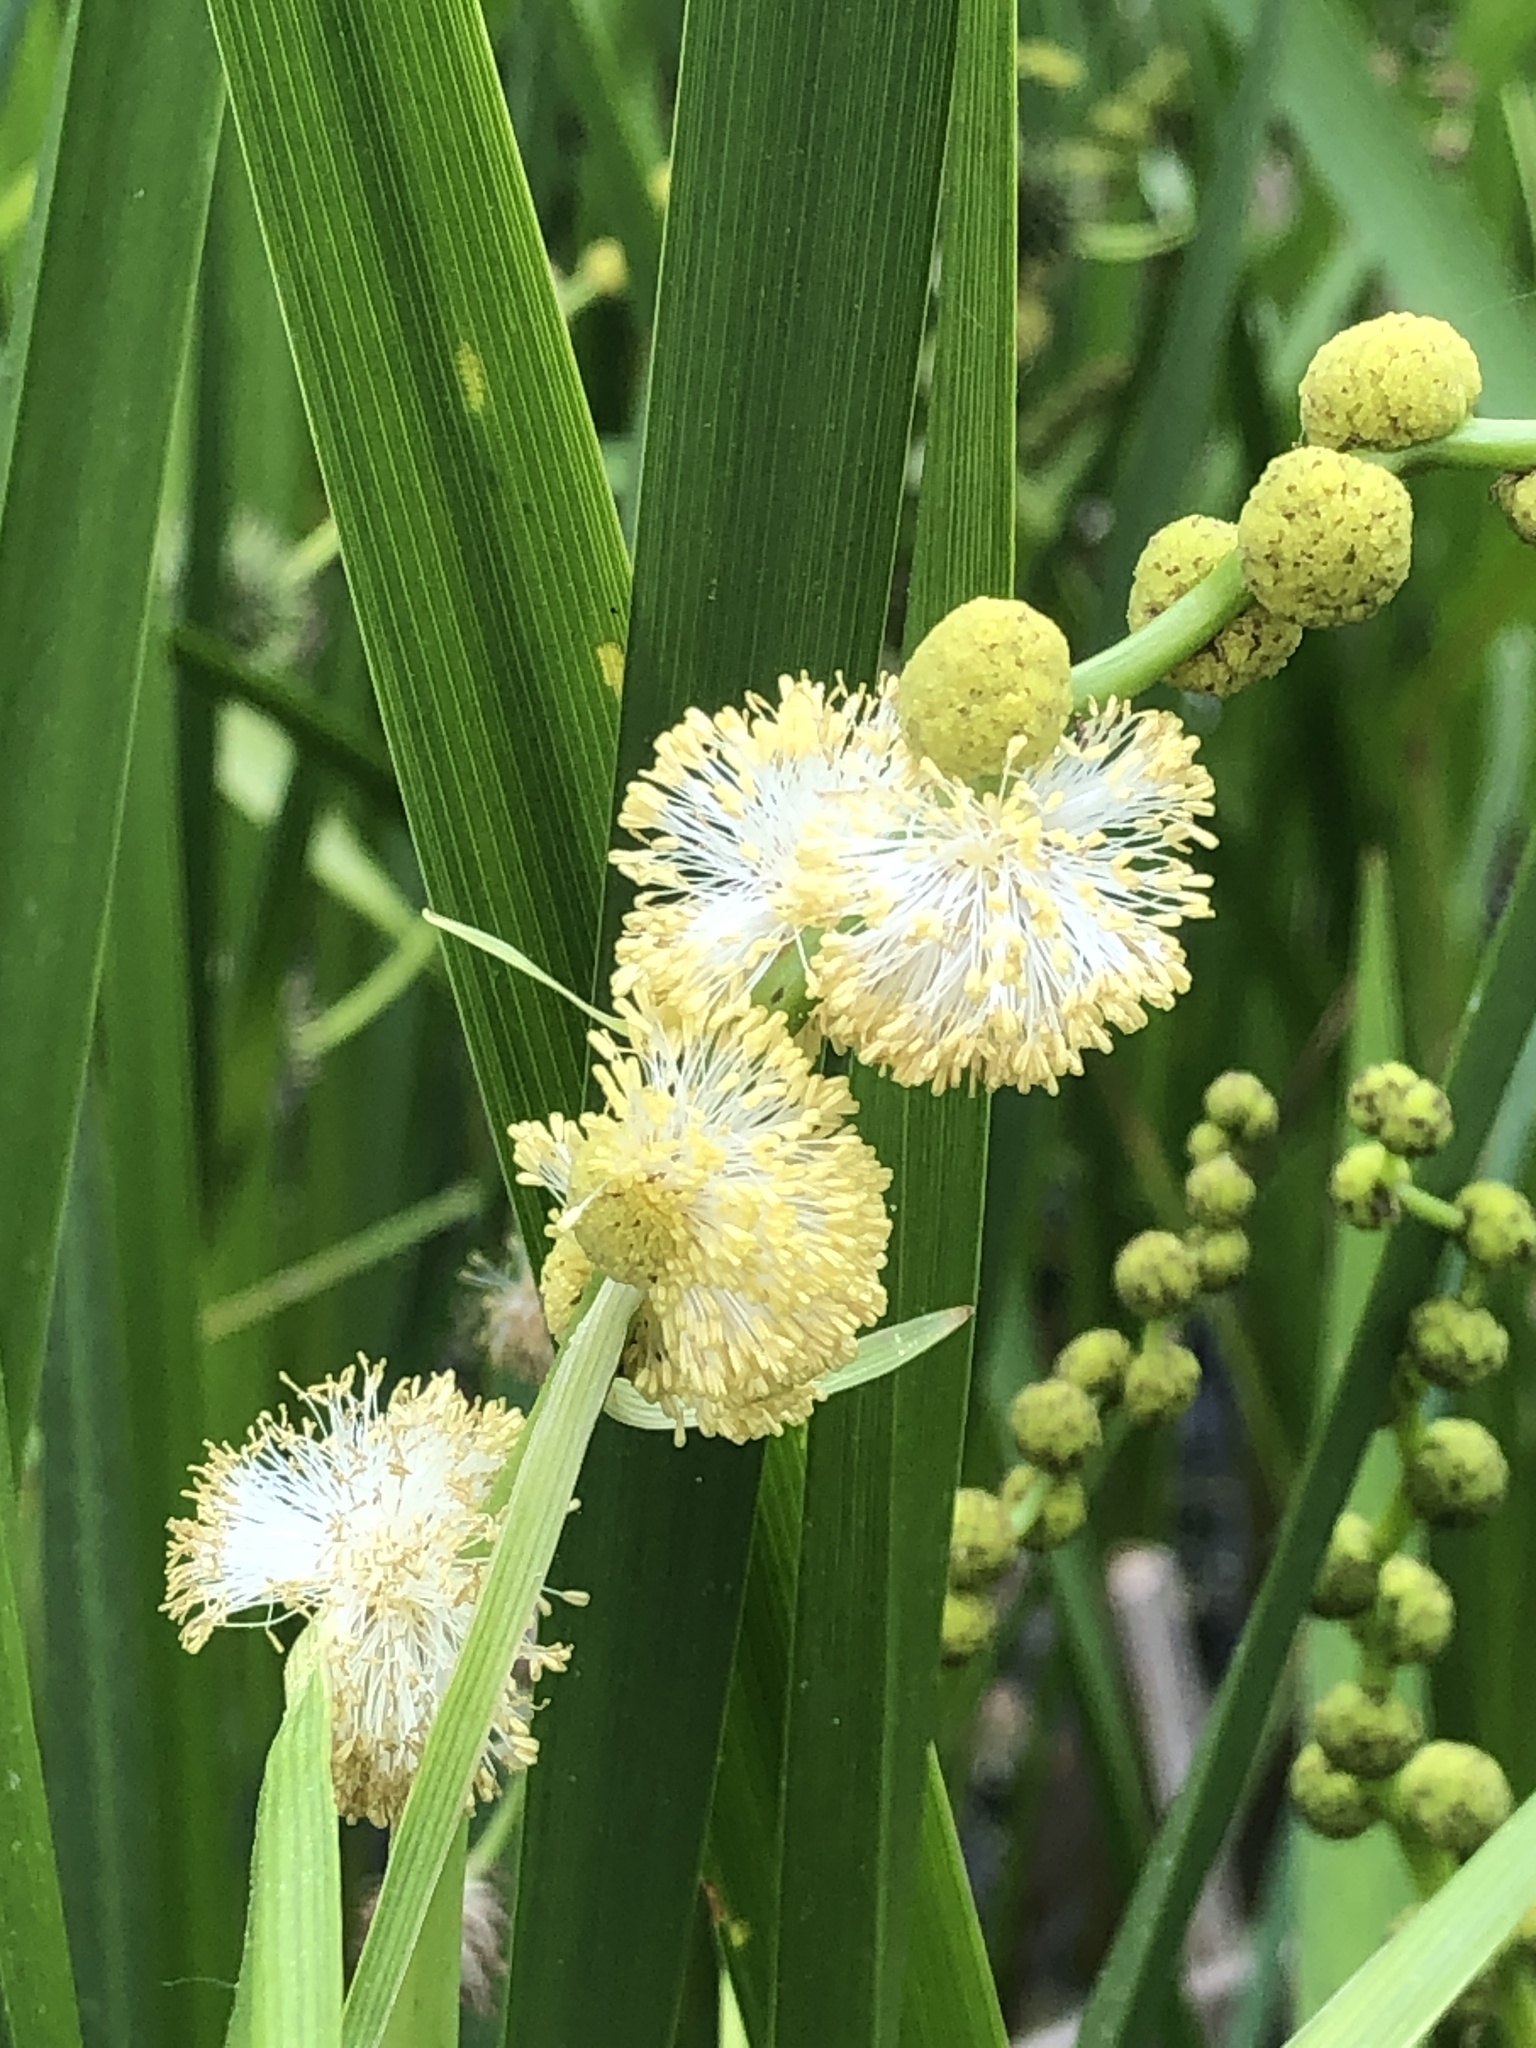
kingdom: Plantae
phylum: Tracheophyta
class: Liliopsida
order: Poales
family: Typhaceae
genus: Sparganium
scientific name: Sparganium eurycarpum
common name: Broad-fruited burreed
